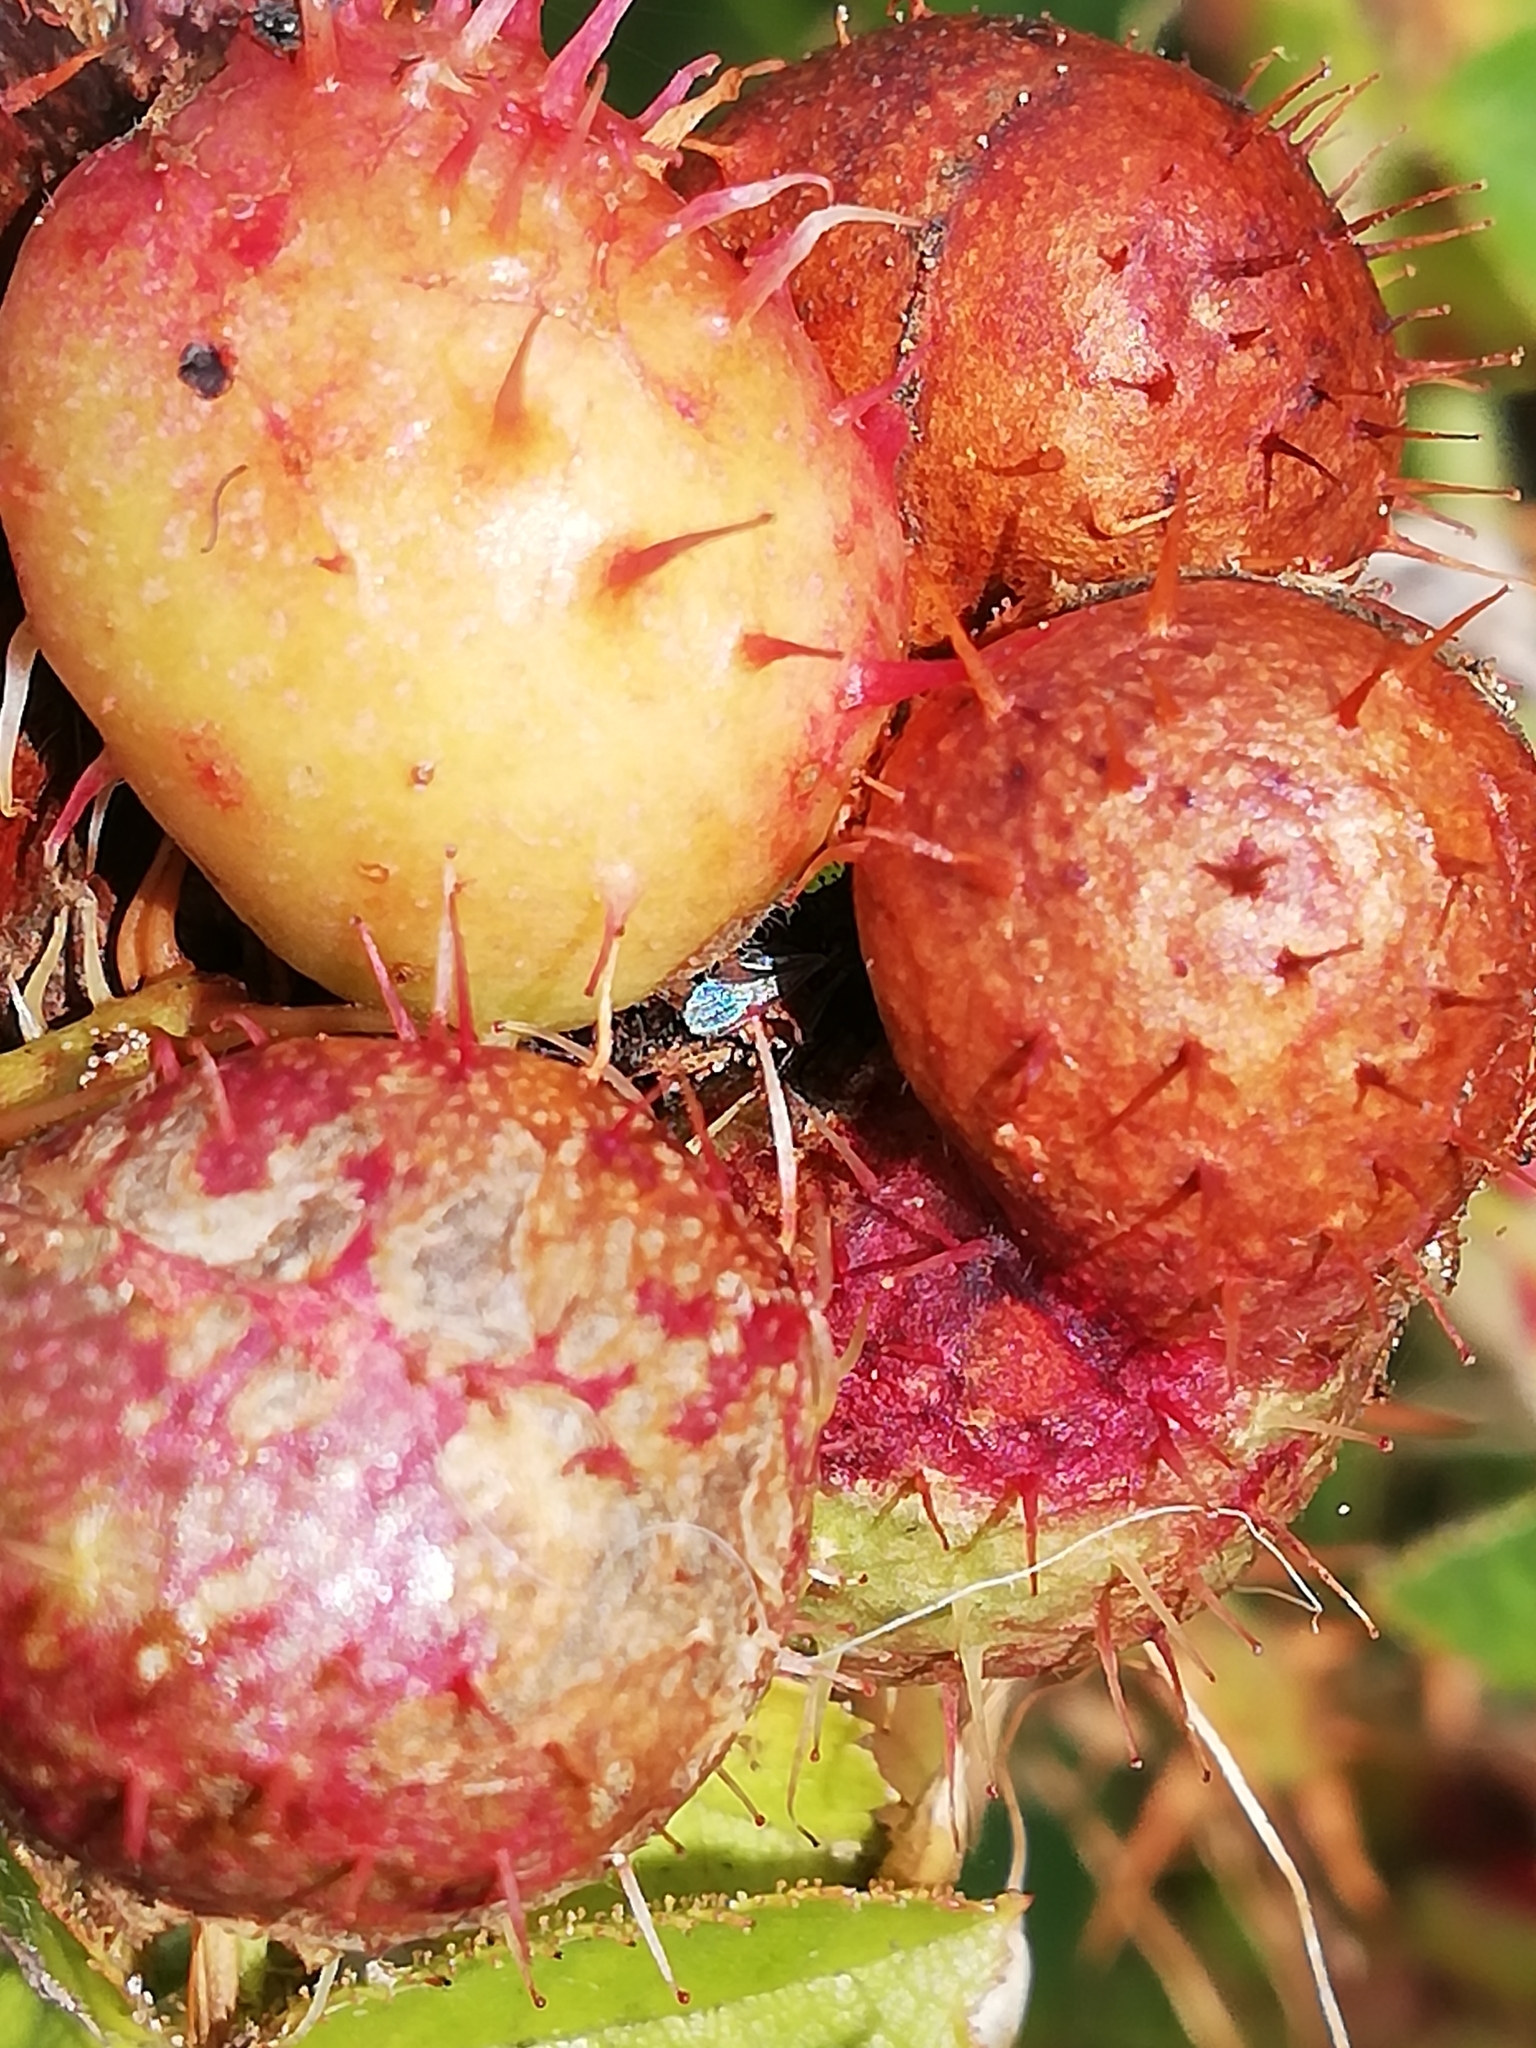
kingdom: Animalia
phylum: Arthropoda
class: Insecta
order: Hymenoptera
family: Cynipidae
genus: Diplolepis
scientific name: Diplolepis mayri
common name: Gall wasp
